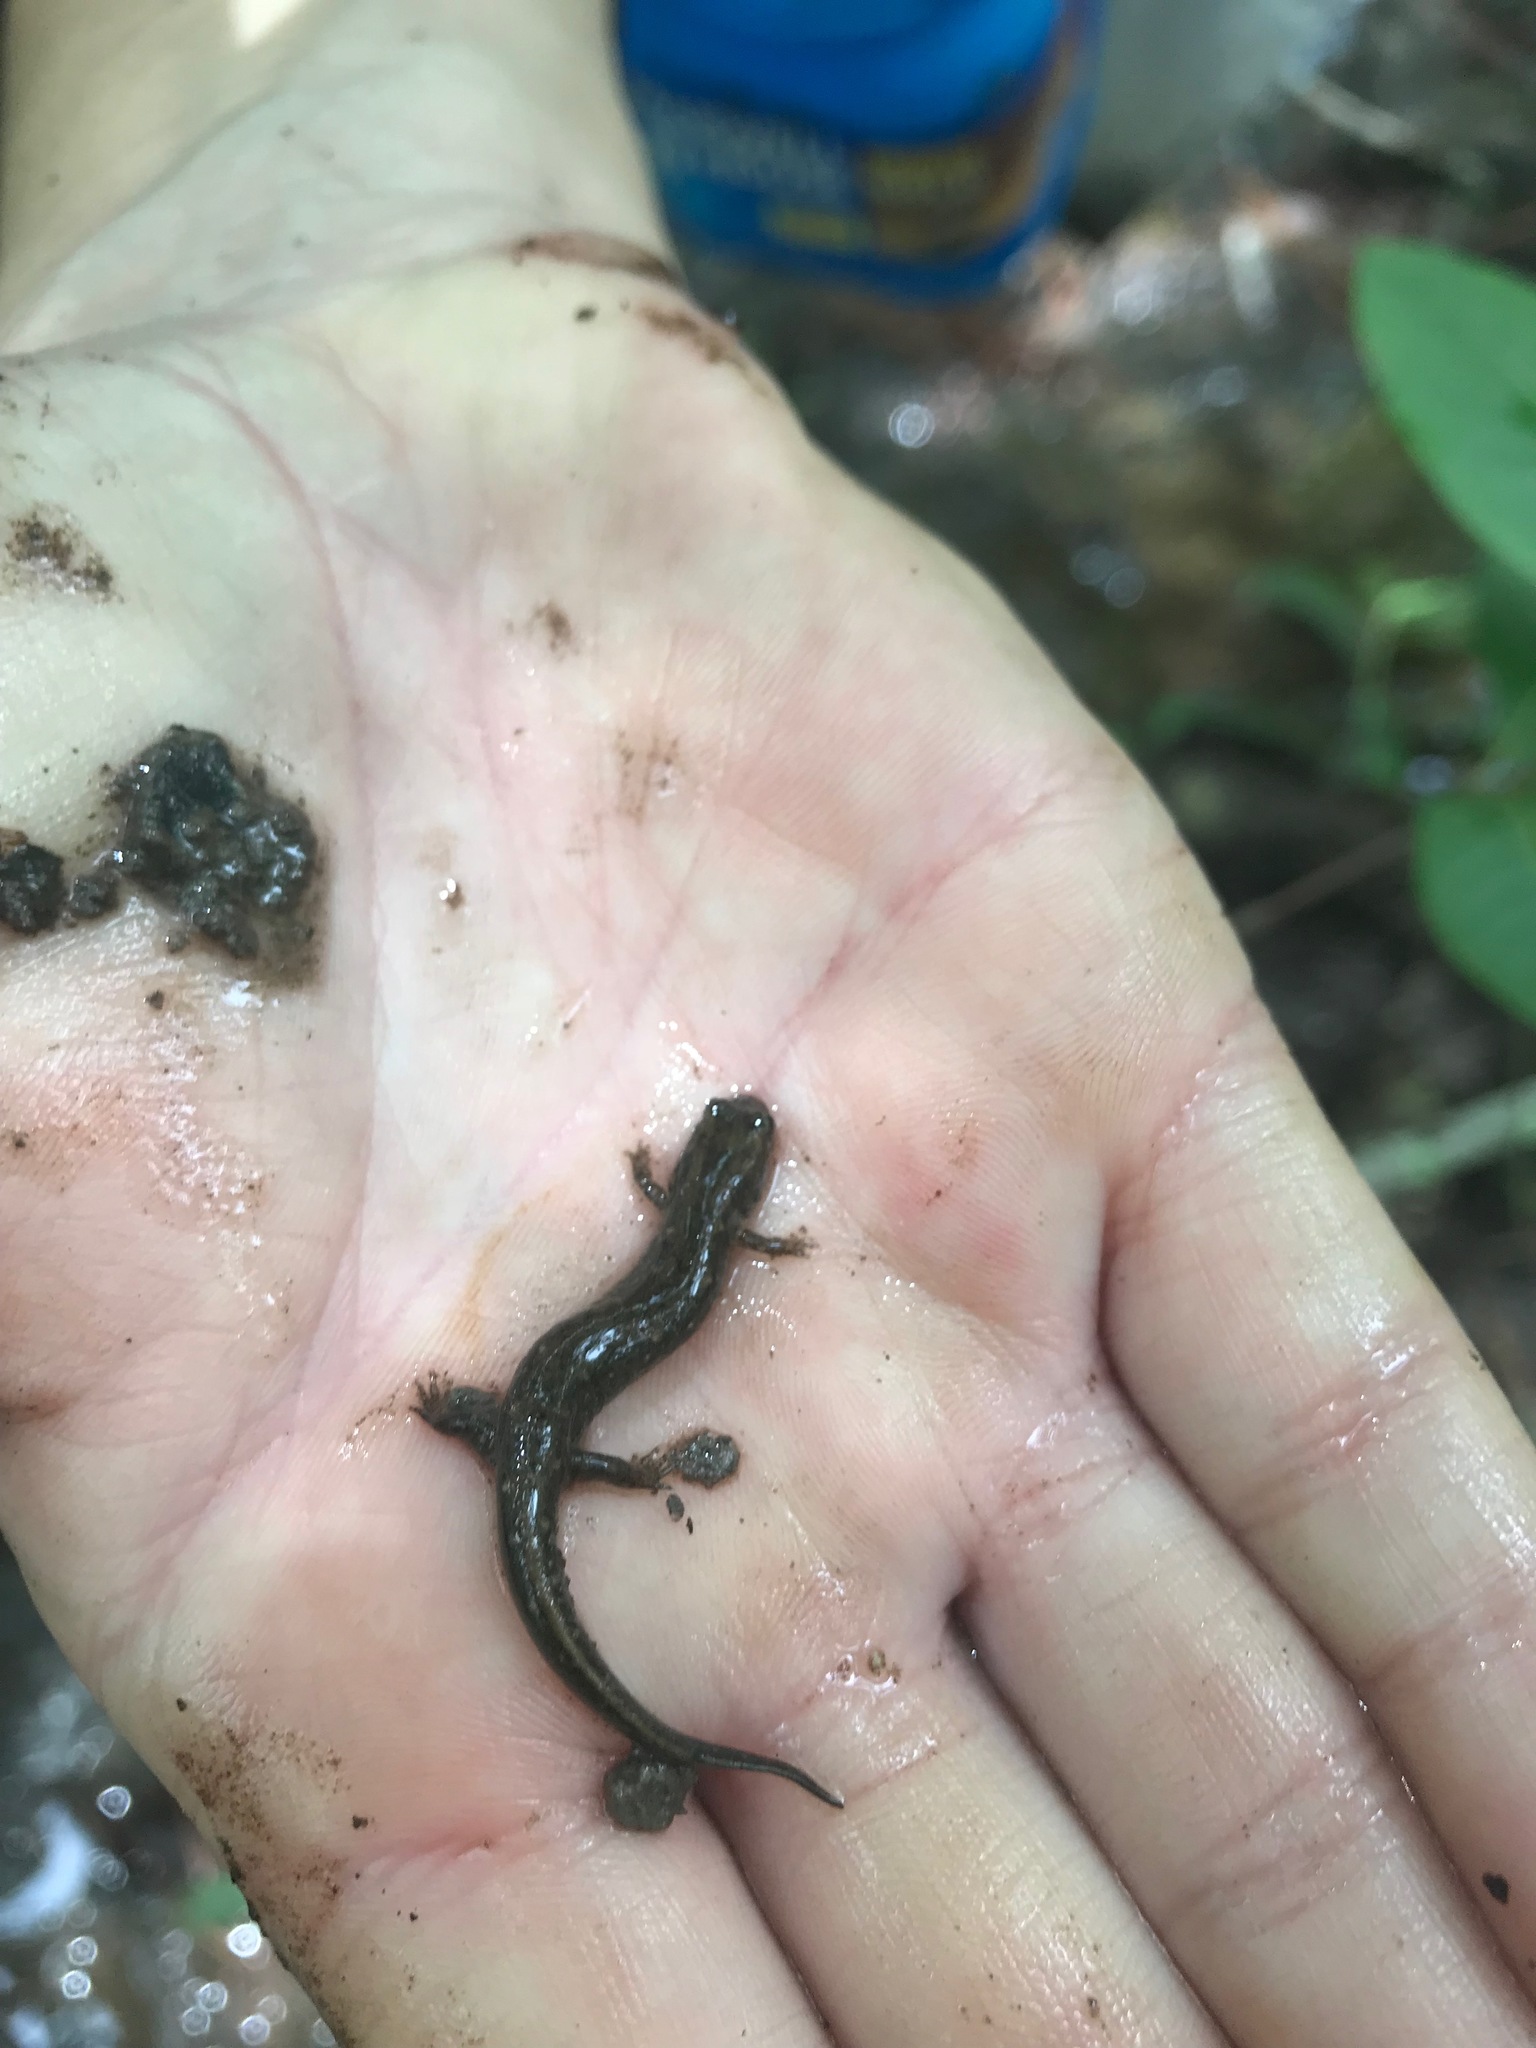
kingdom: Animalia
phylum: Chordata
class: Amphibia
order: Caudata
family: Plethodontidae
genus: Desmognathus
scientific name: Desmognathus valentinei
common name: Valentine's southern dusky salamander
